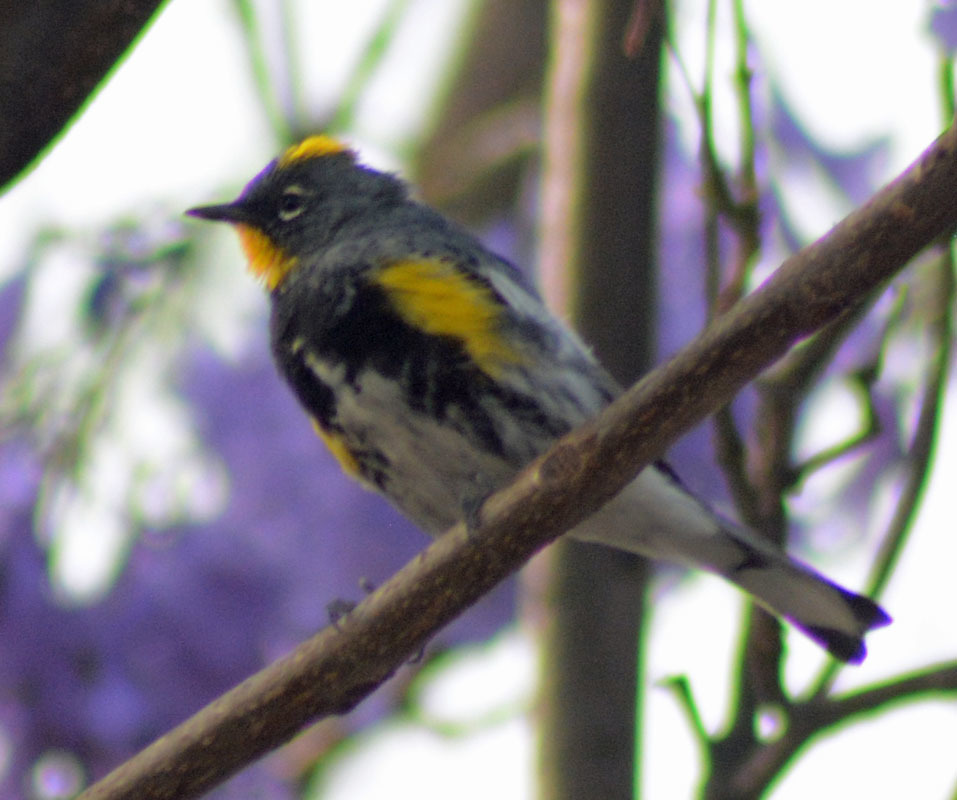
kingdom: Animalia
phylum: Chordata
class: Aves
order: Passeriformes
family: Parulidae
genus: Setophaga
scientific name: Setophaga auduboni
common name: Audubon's warbler
